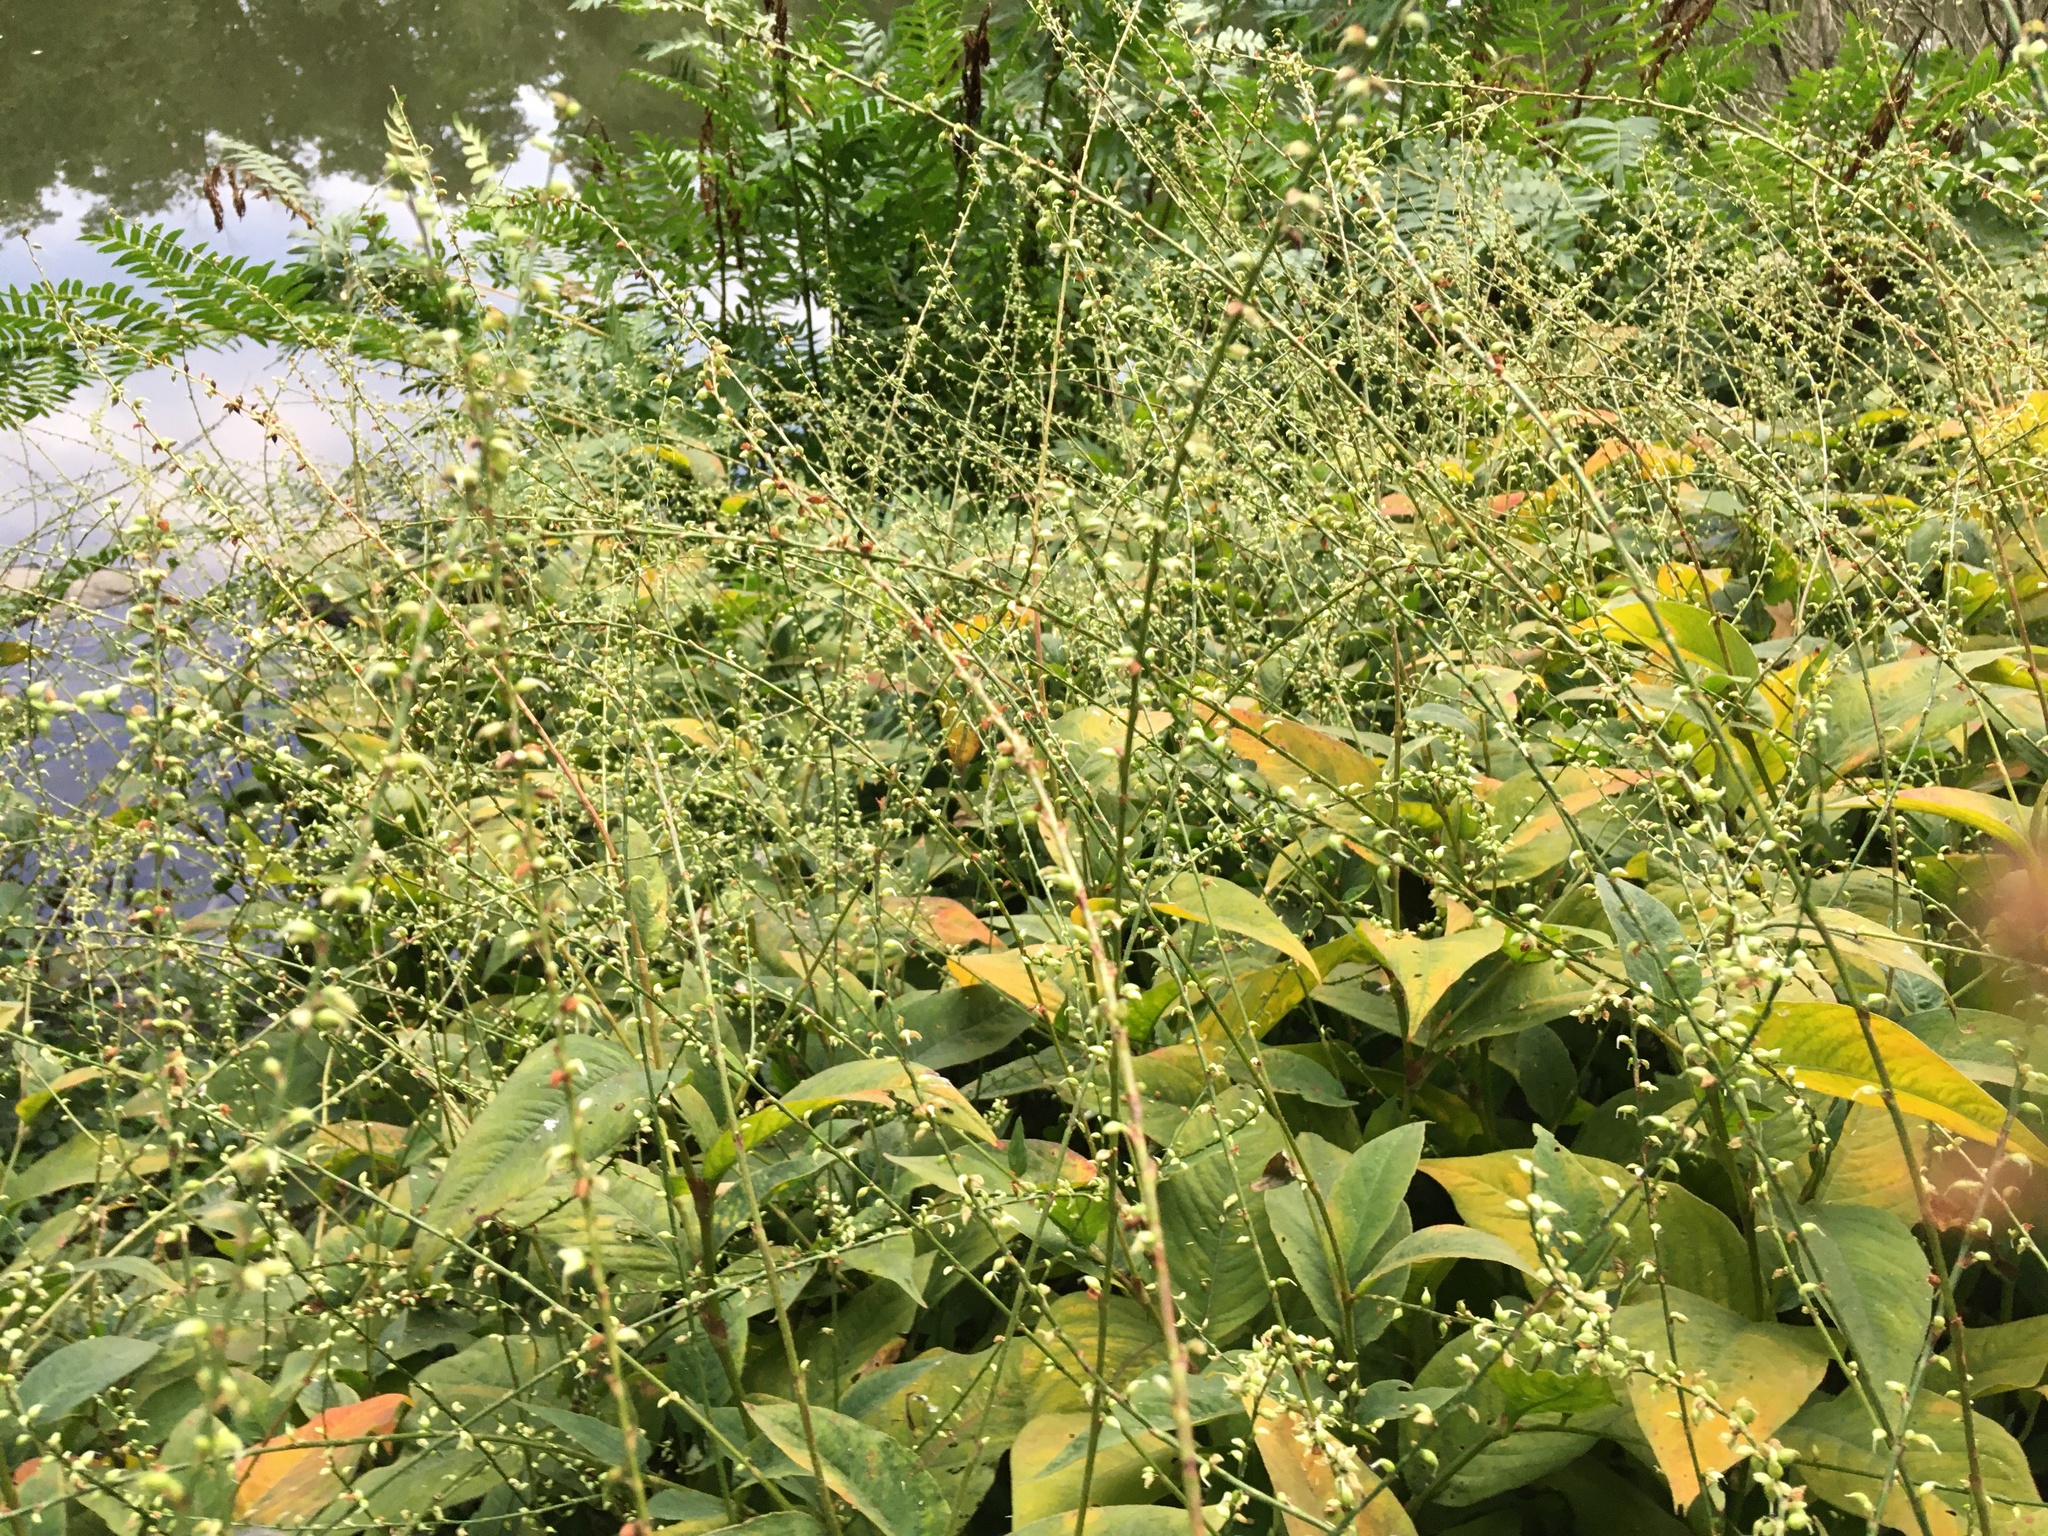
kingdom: Plantae
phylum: Tracheophyta
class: Magnoliopsida
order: Caryophyllales
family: Polygonaceae
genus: Persicaria
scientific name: Persicaria virginiana
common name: Jumpseed
